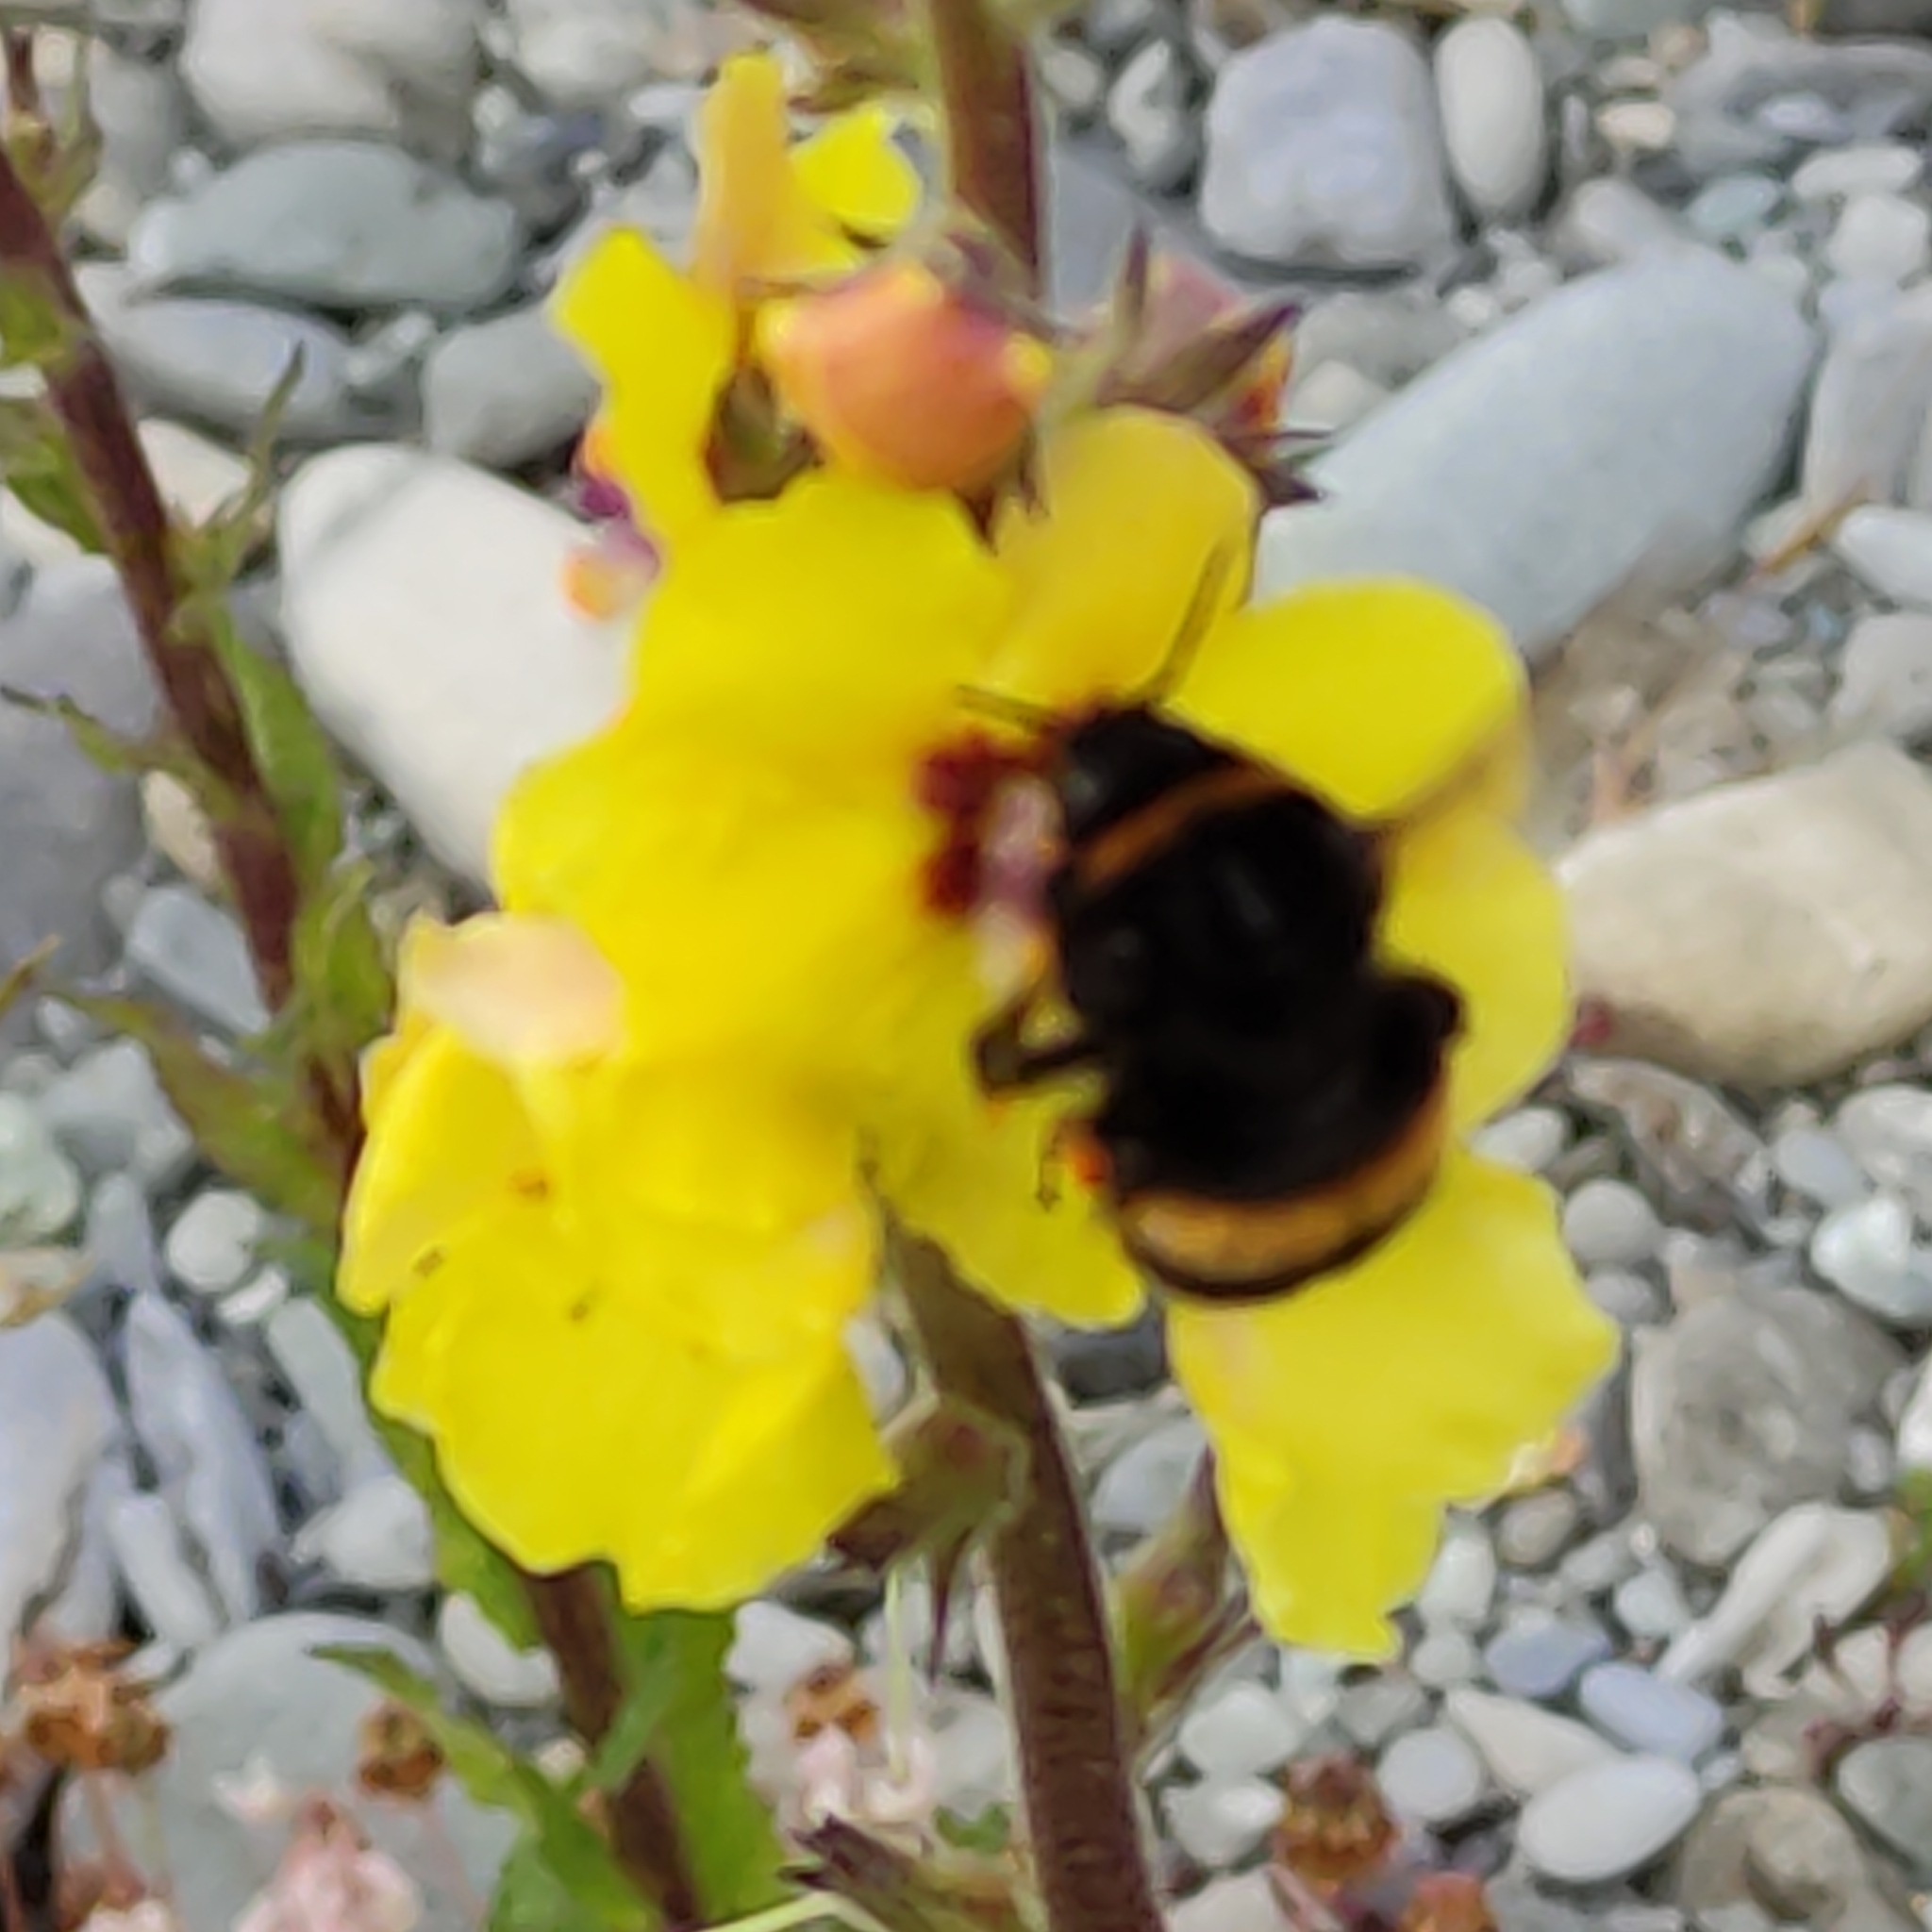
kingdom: Animalia
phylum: Arthropoda
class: Insecta
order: Hymenoptera
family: Apidae
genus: Bombus
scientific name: Bombus terrestris
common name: Buff-tailed bumblebee
